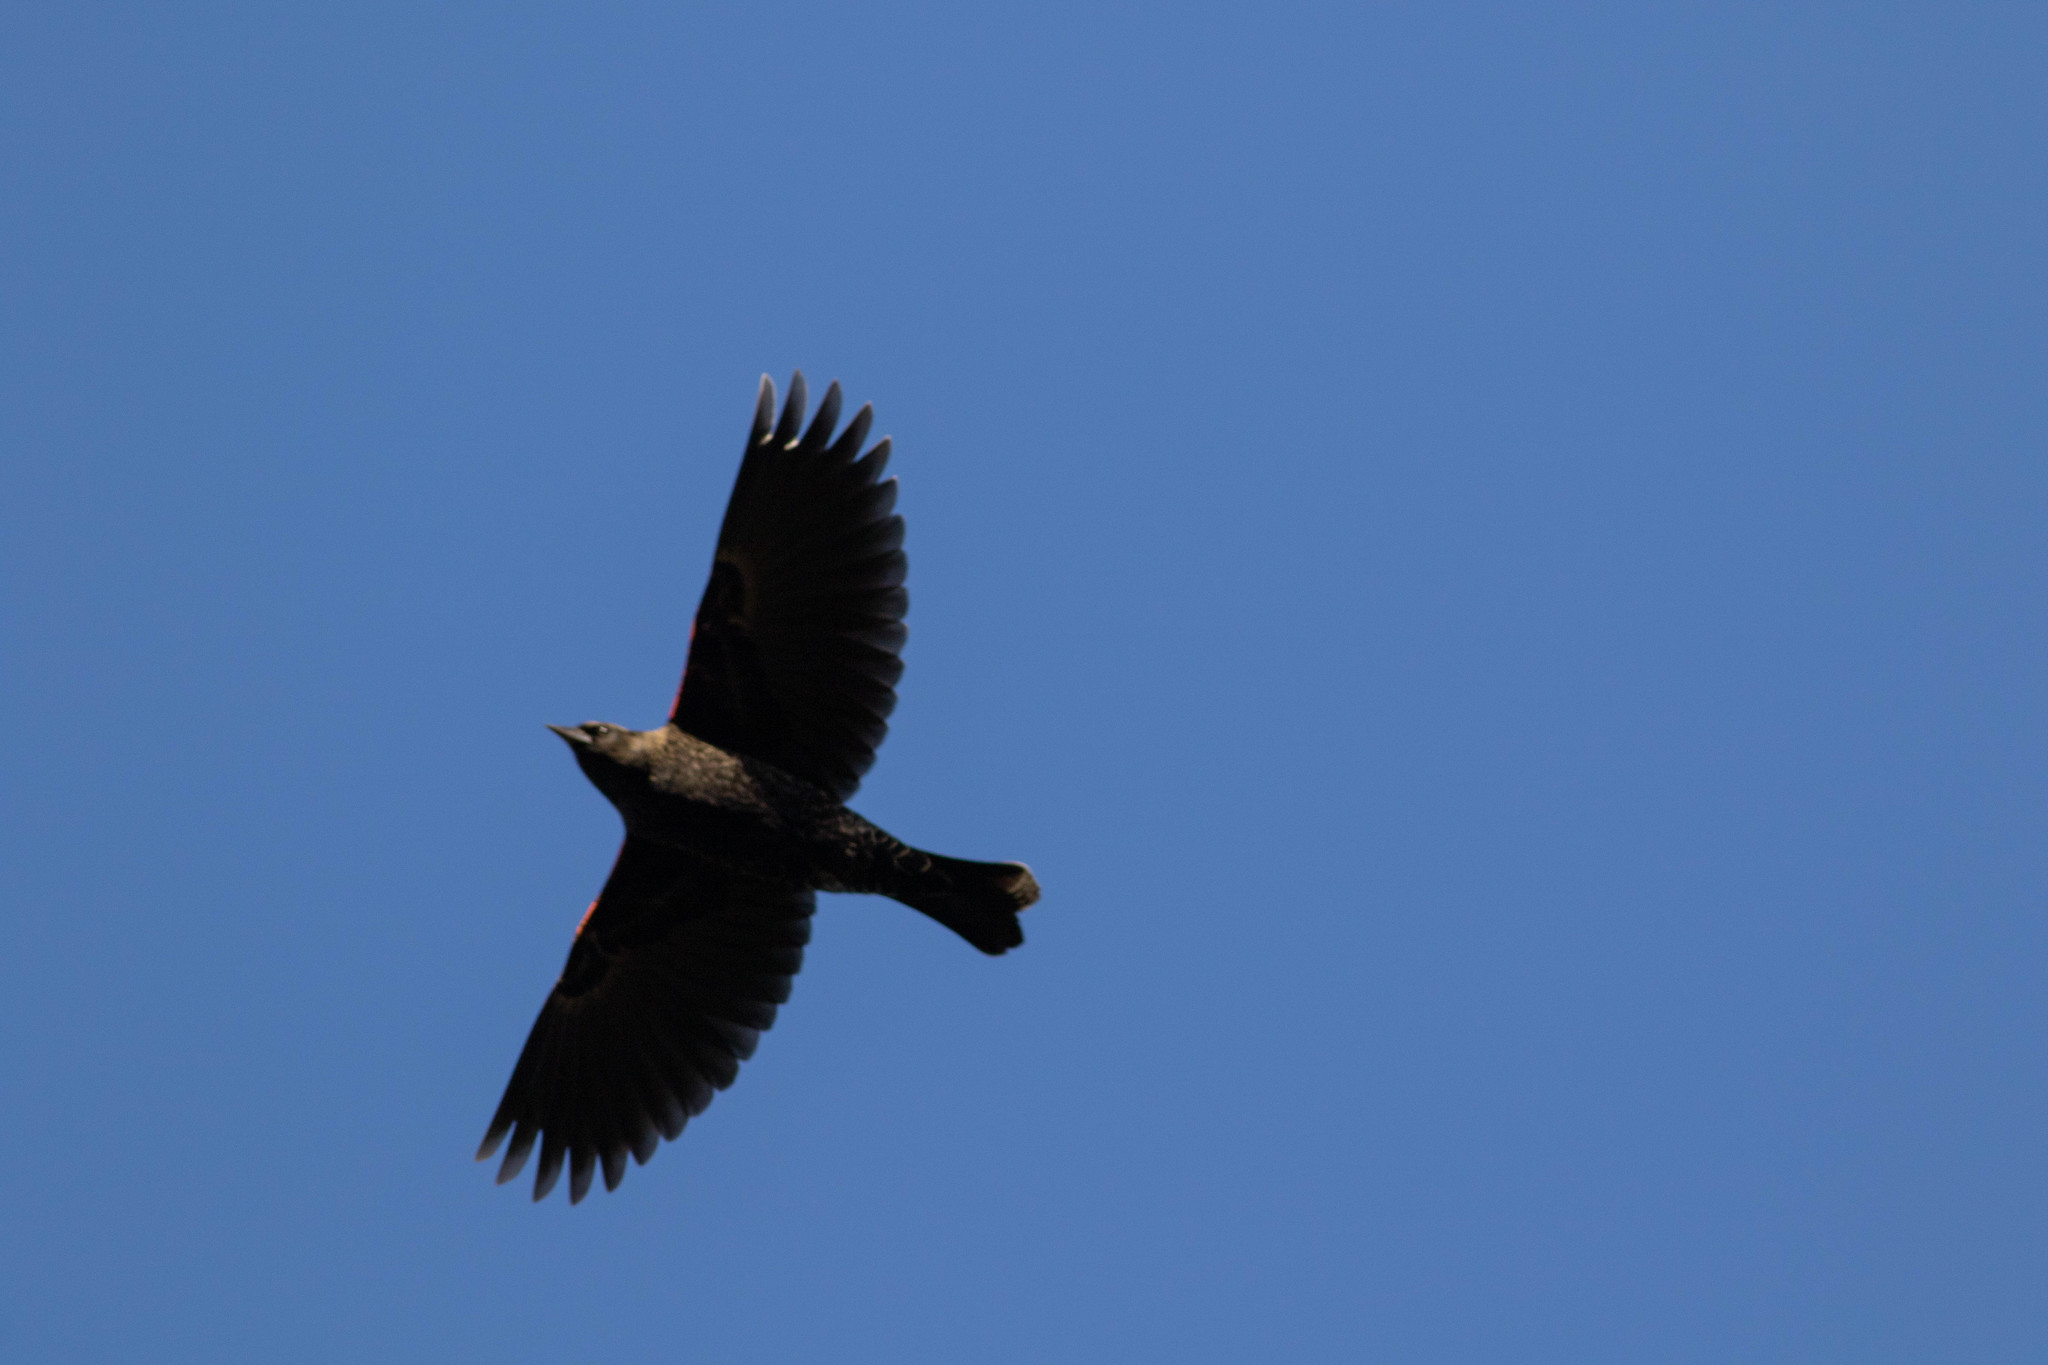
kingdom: Animalia
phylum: Chordata
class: Aves
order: Passeriformes
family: Icteridae
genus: Agelaius
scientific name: Agelaius phoeniceus
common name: Red-winged blackbird
